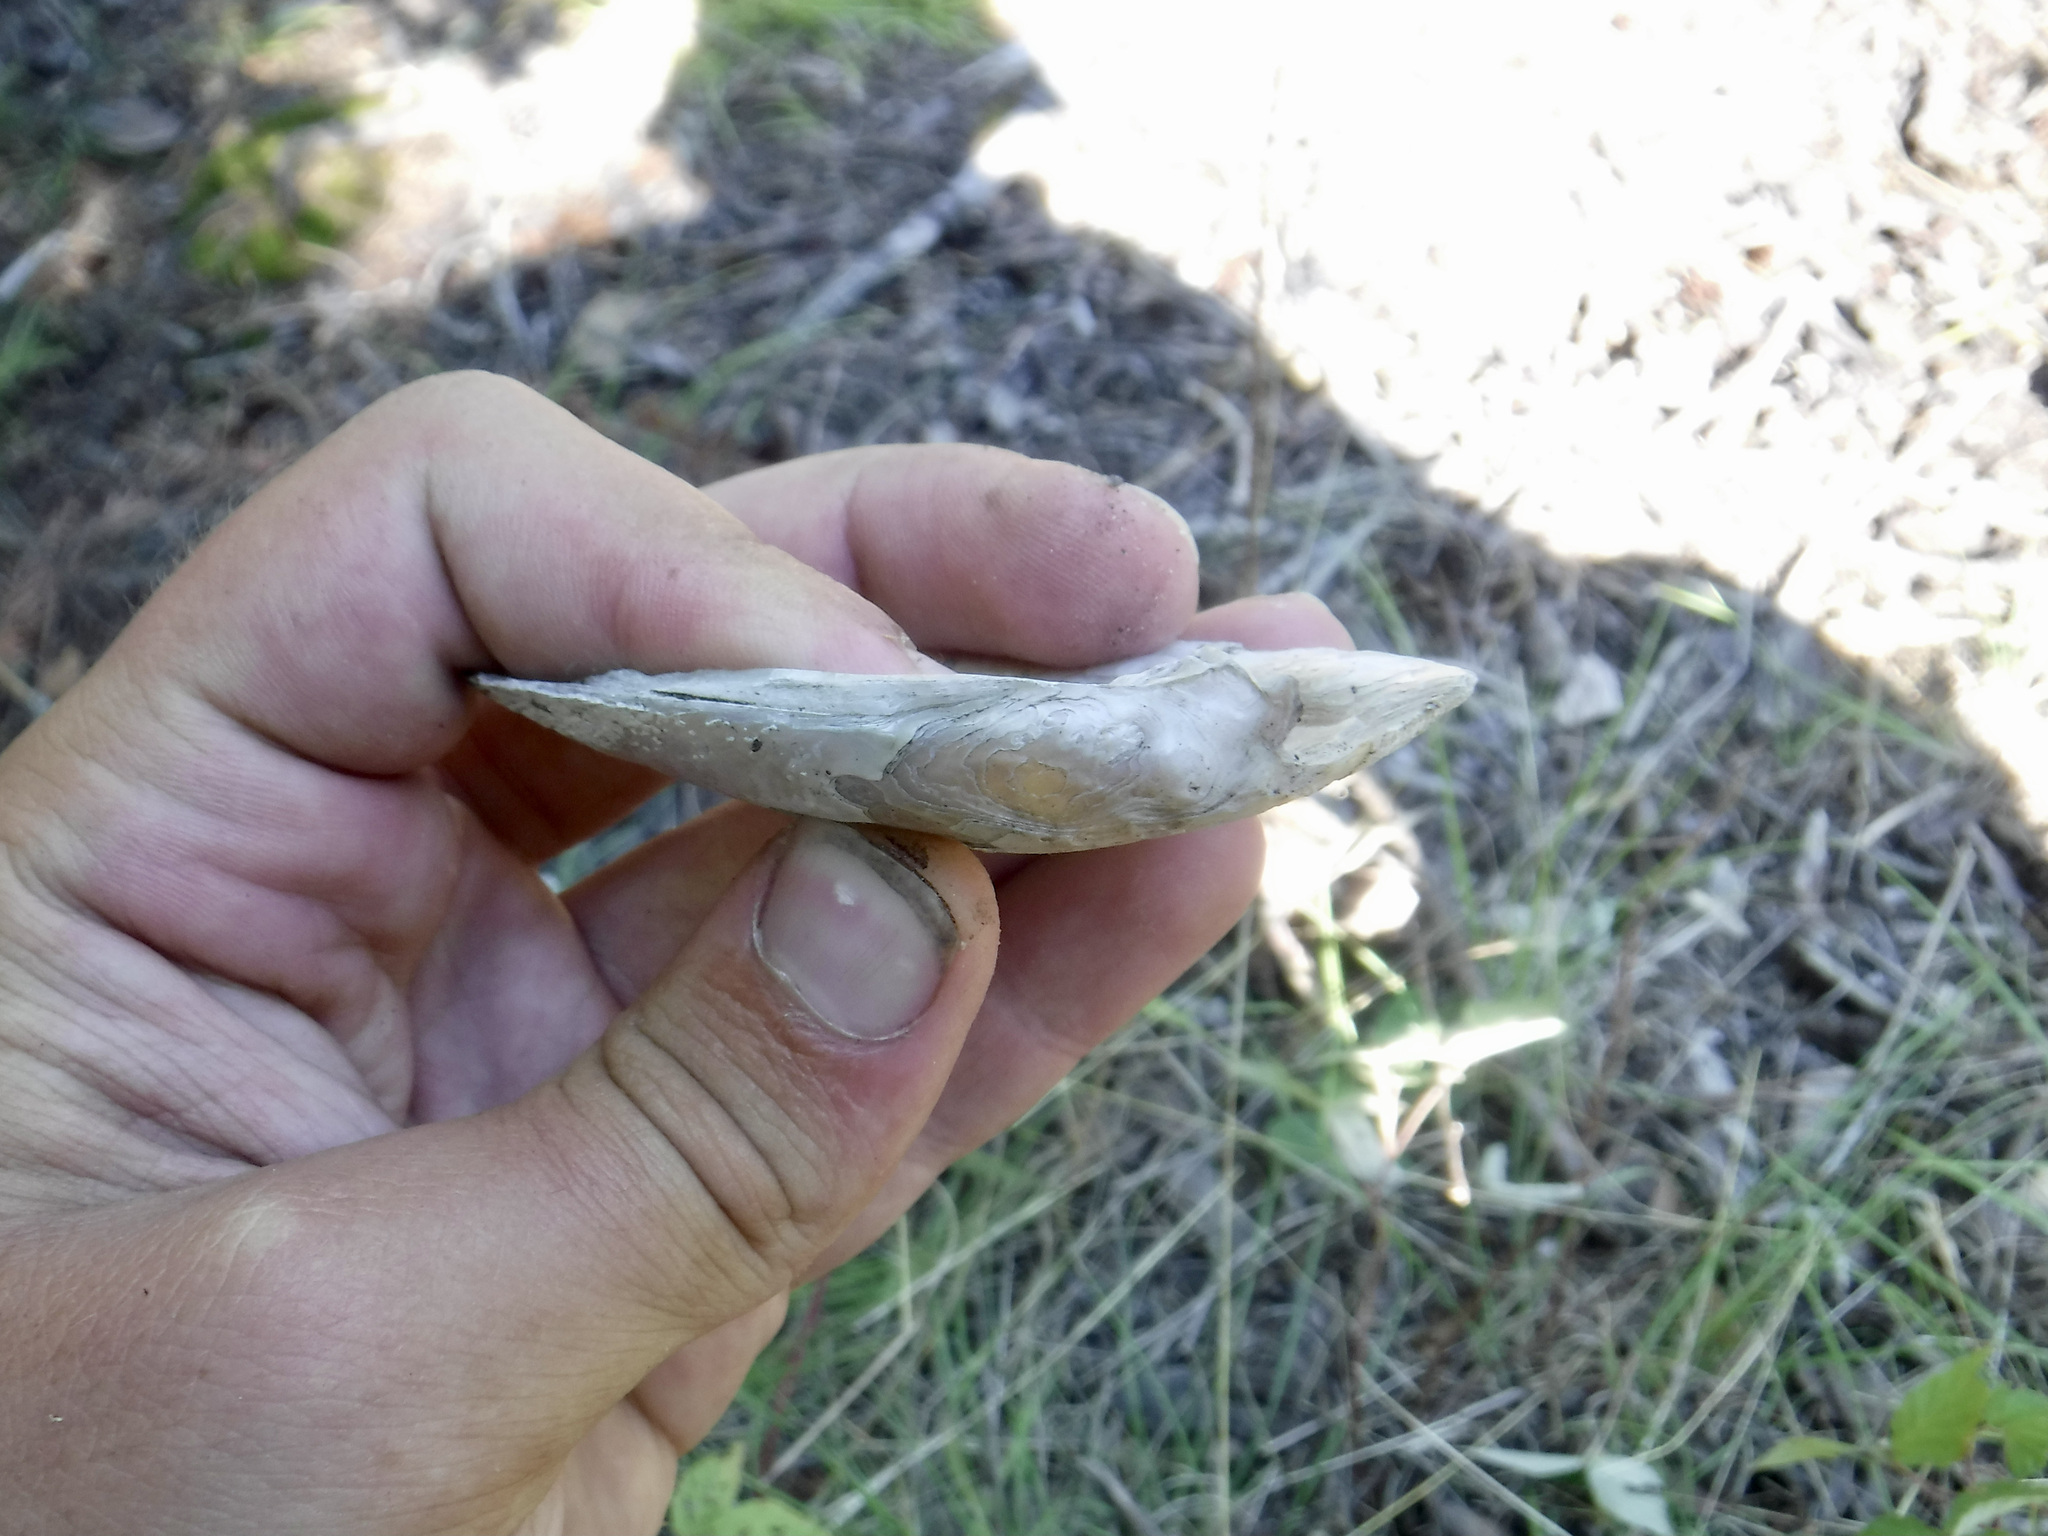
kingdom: Animalia
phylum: Mollusca
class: Bivalvia
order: Unionida
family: Unionidae
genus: Lampsilis
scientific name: Lampsilis siliquoidea
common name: Fatmucket
